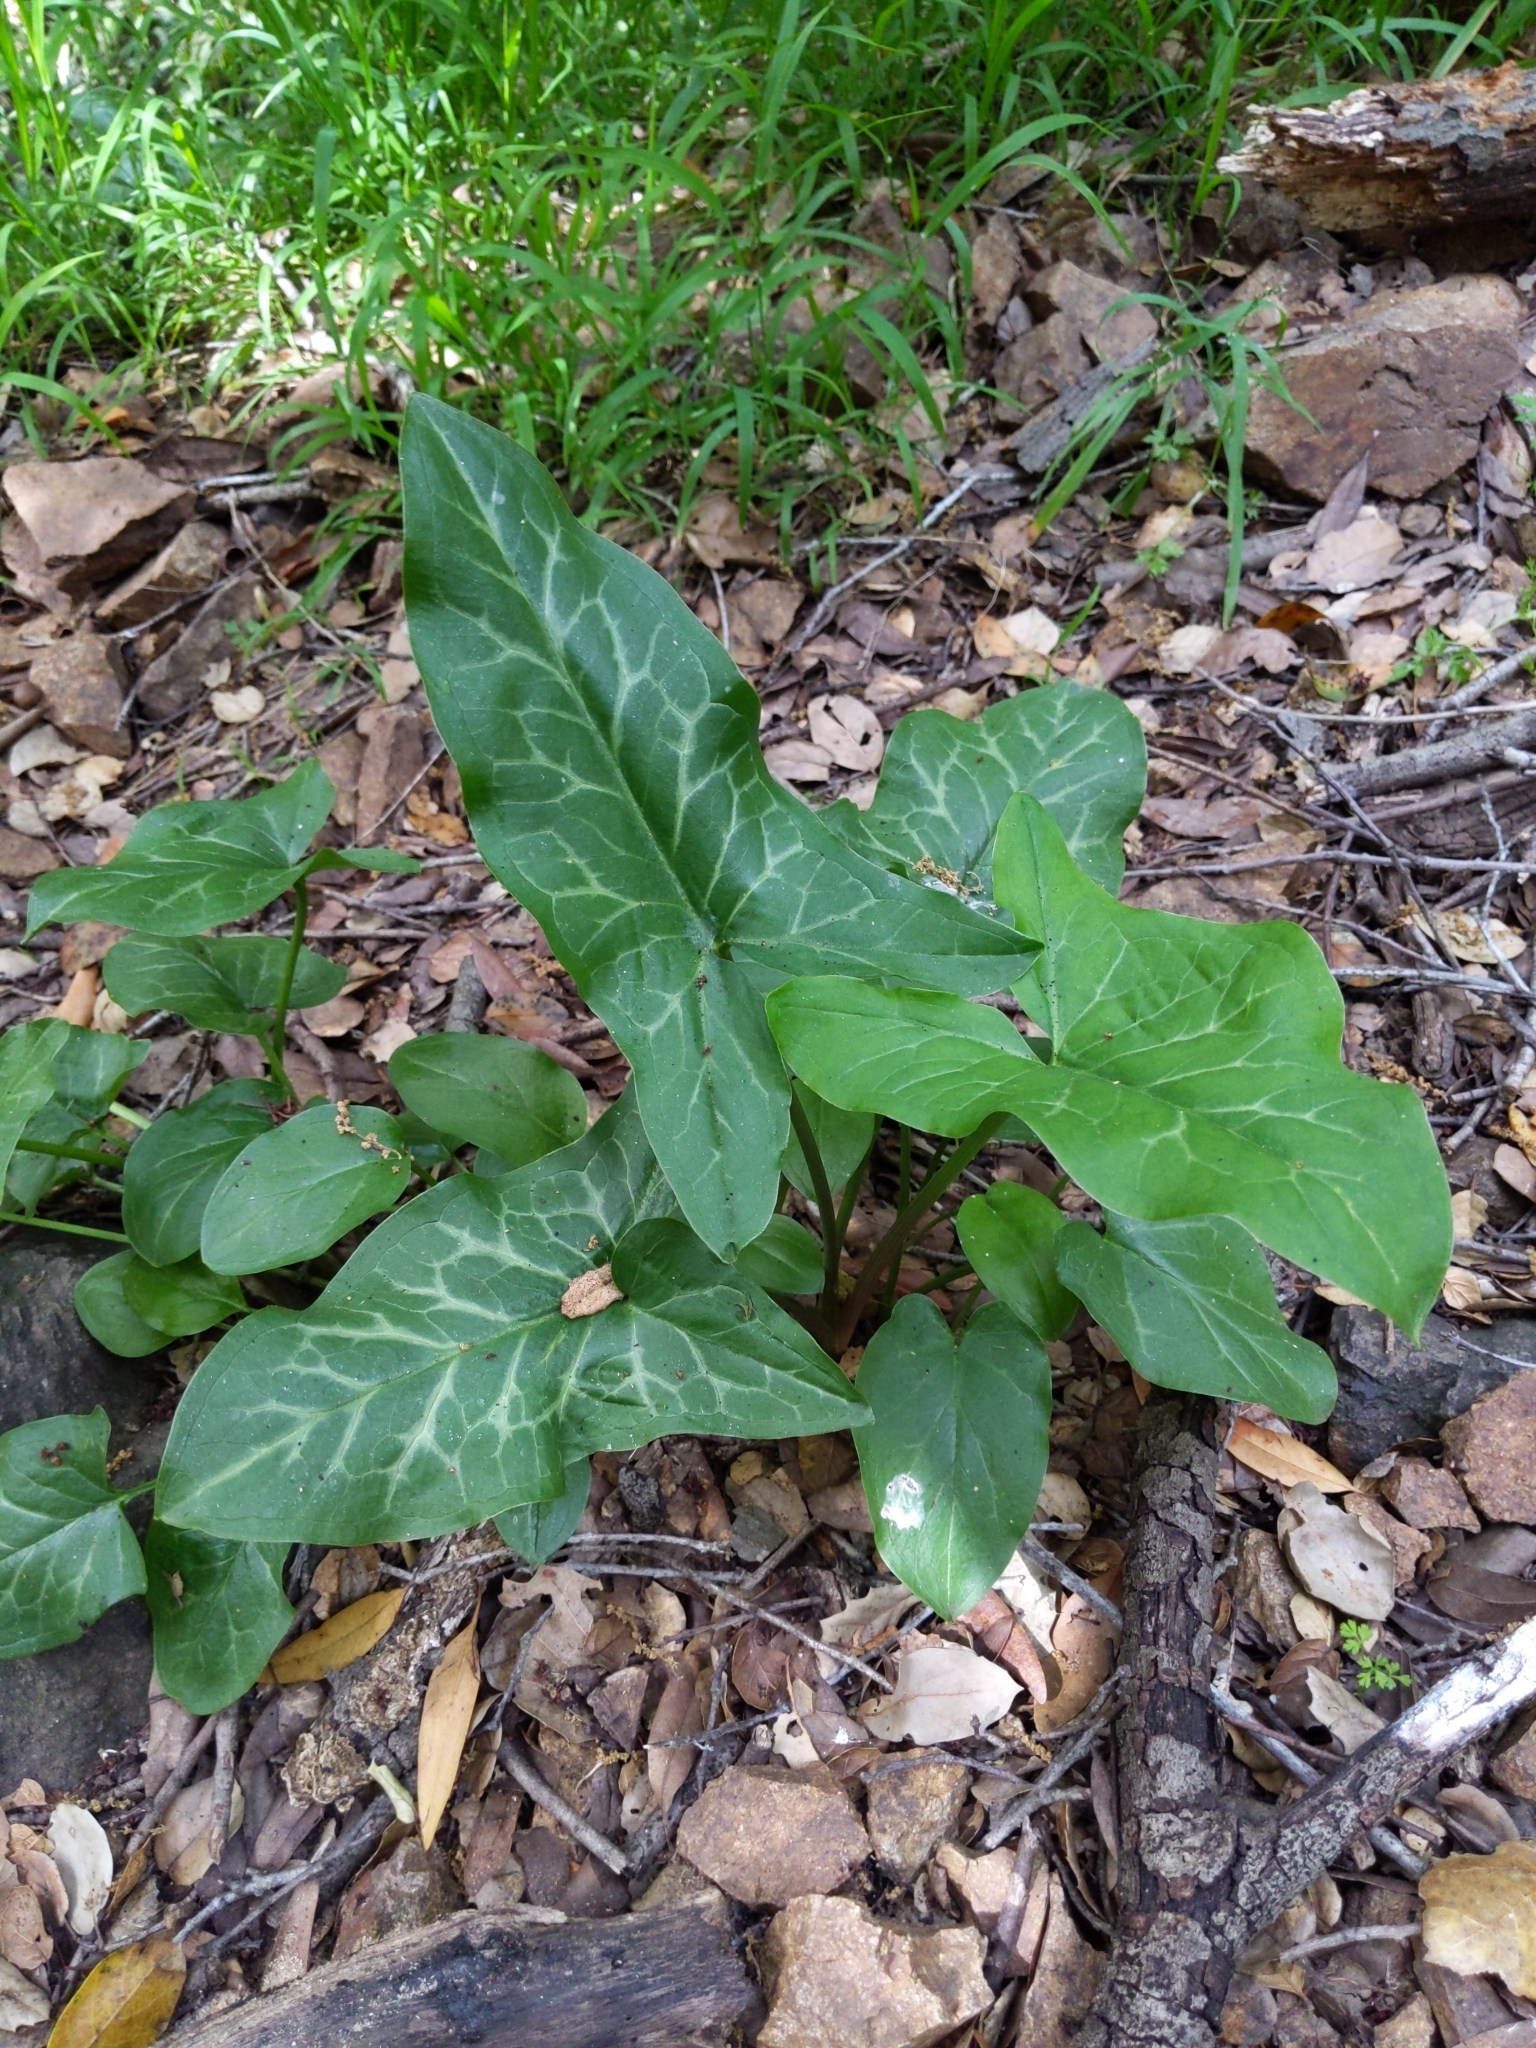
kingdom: Plantae
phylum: Tracheophyta
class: Liliopsida
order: Alismatales
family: Araceae
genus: Arum
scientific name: Arum italicum
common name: Italian lords-and-ladies
